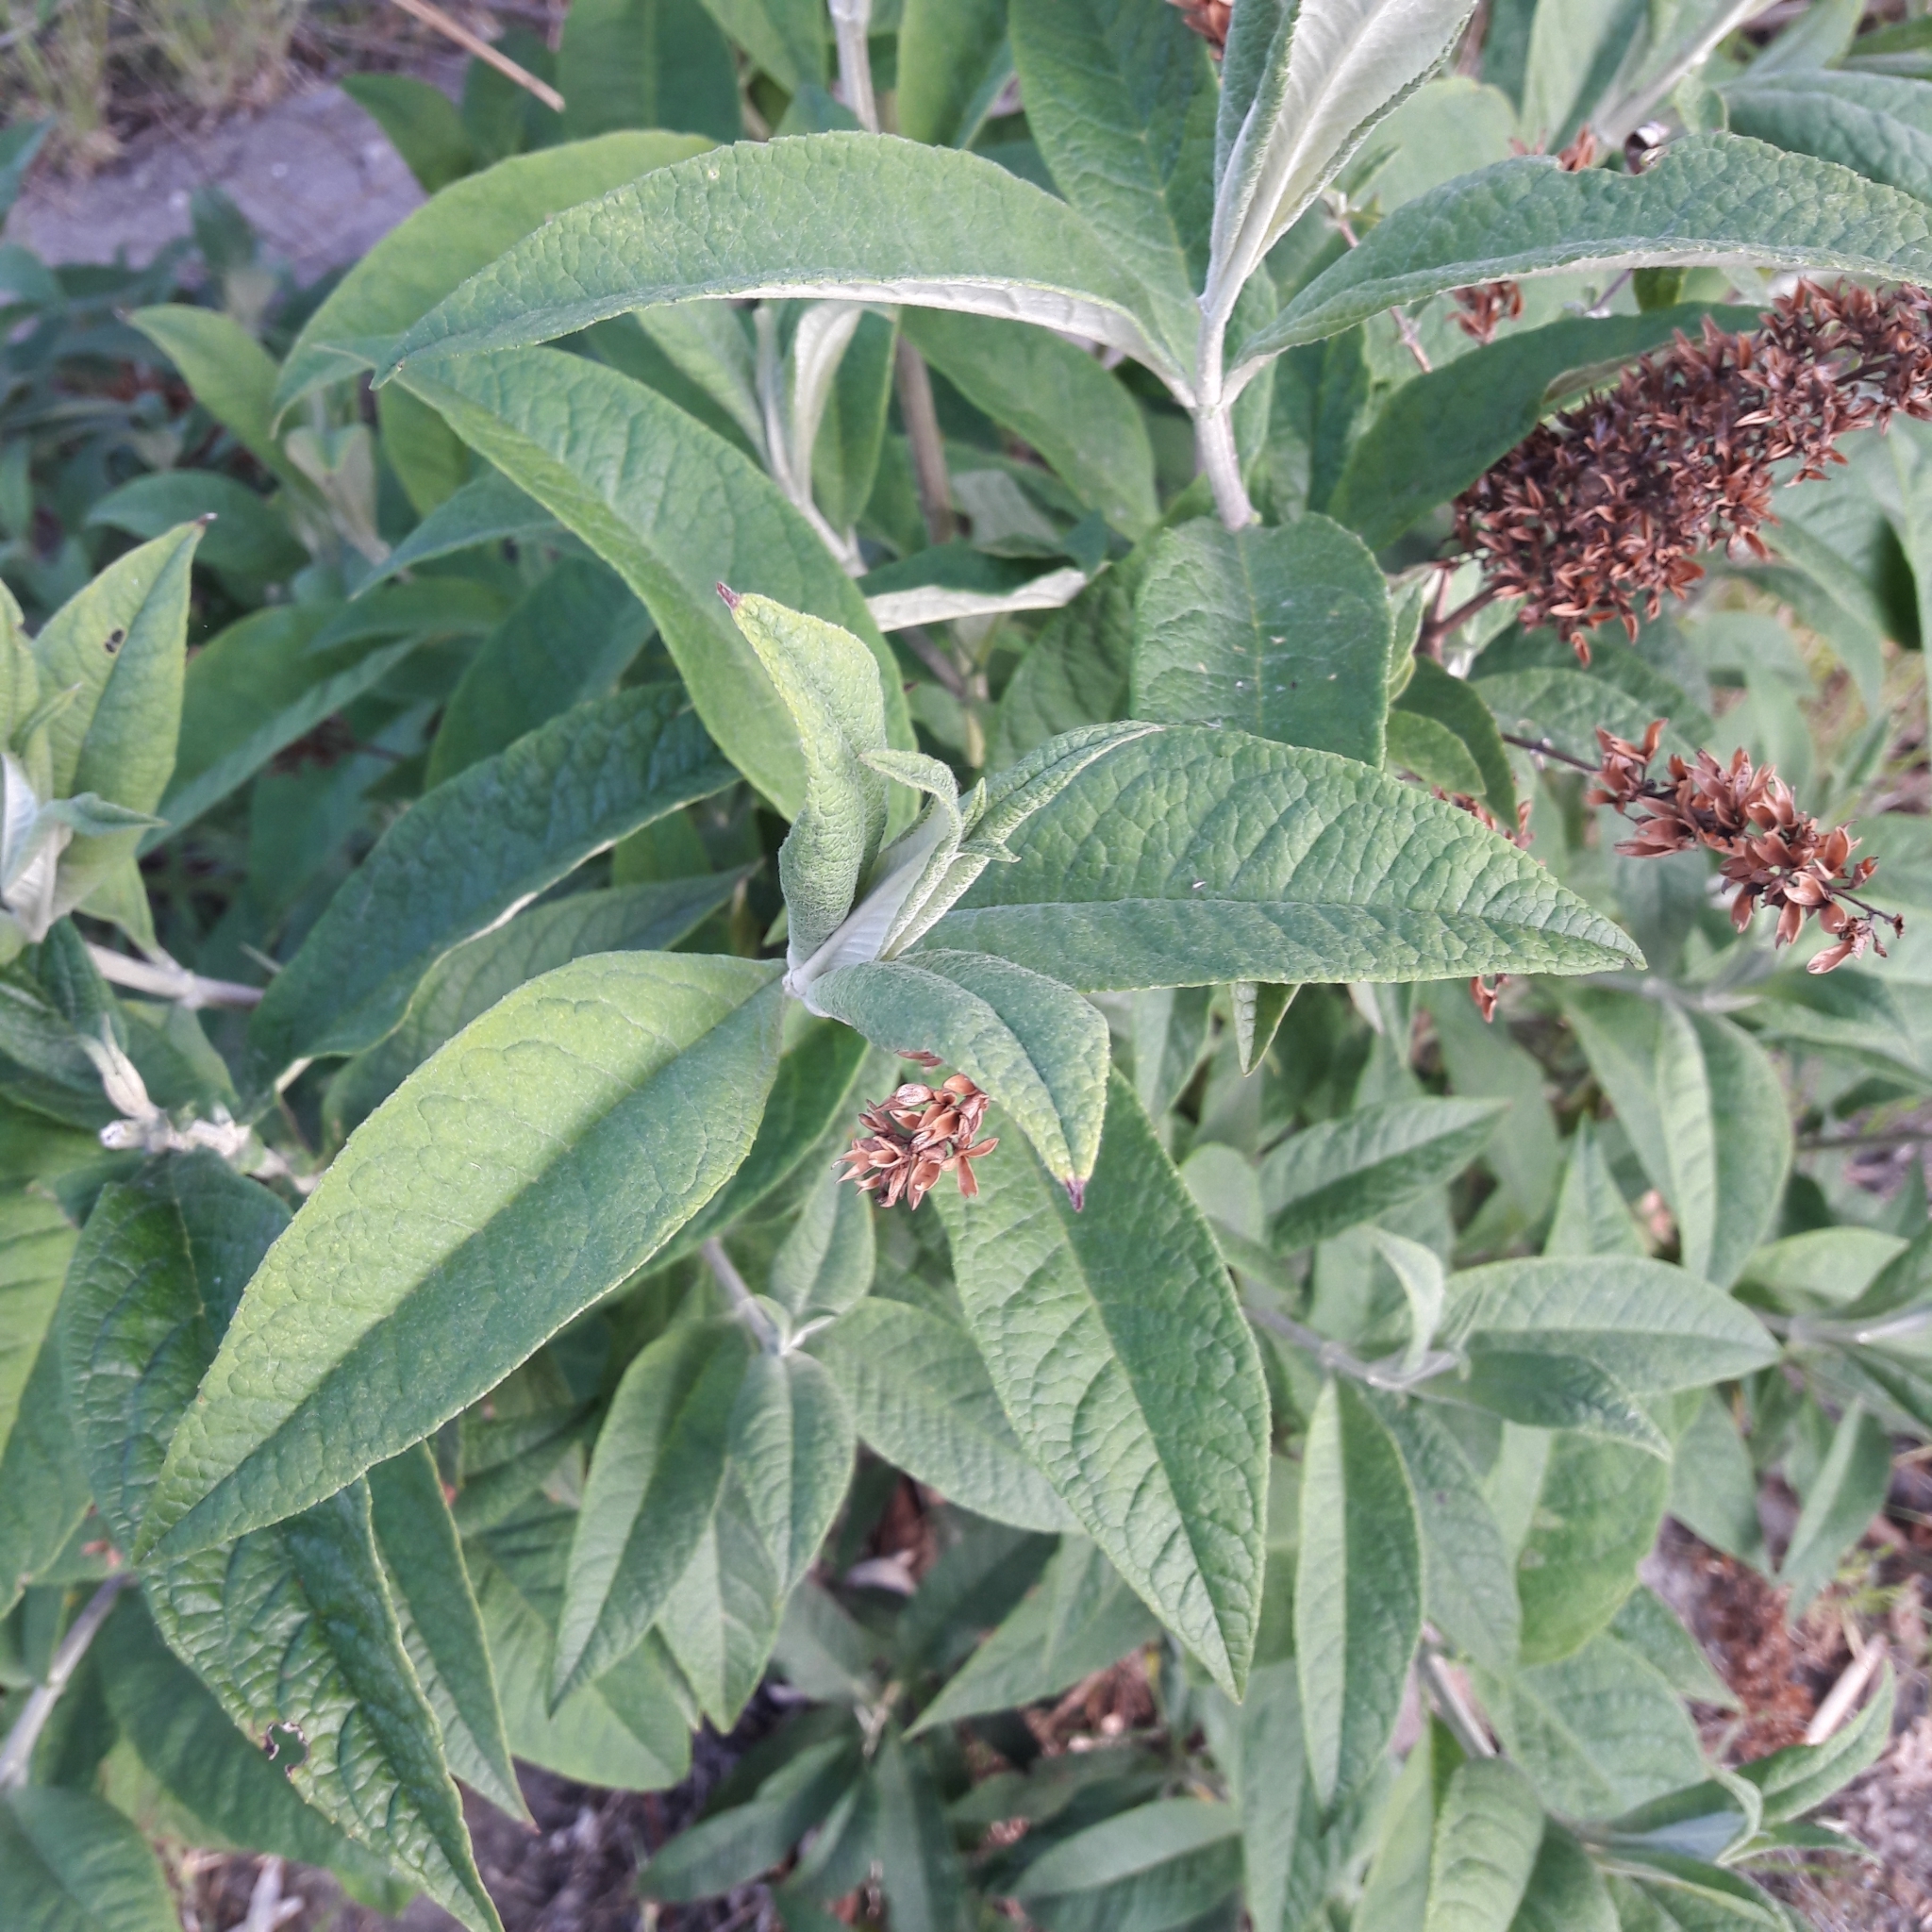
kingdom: Plantae
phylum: Tracheophyta
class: Magnoliopsida
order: Lamiales
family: Scrophulariaceae
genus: Buddleja
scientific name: Buddleja davidii
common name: Butterfly-bush
